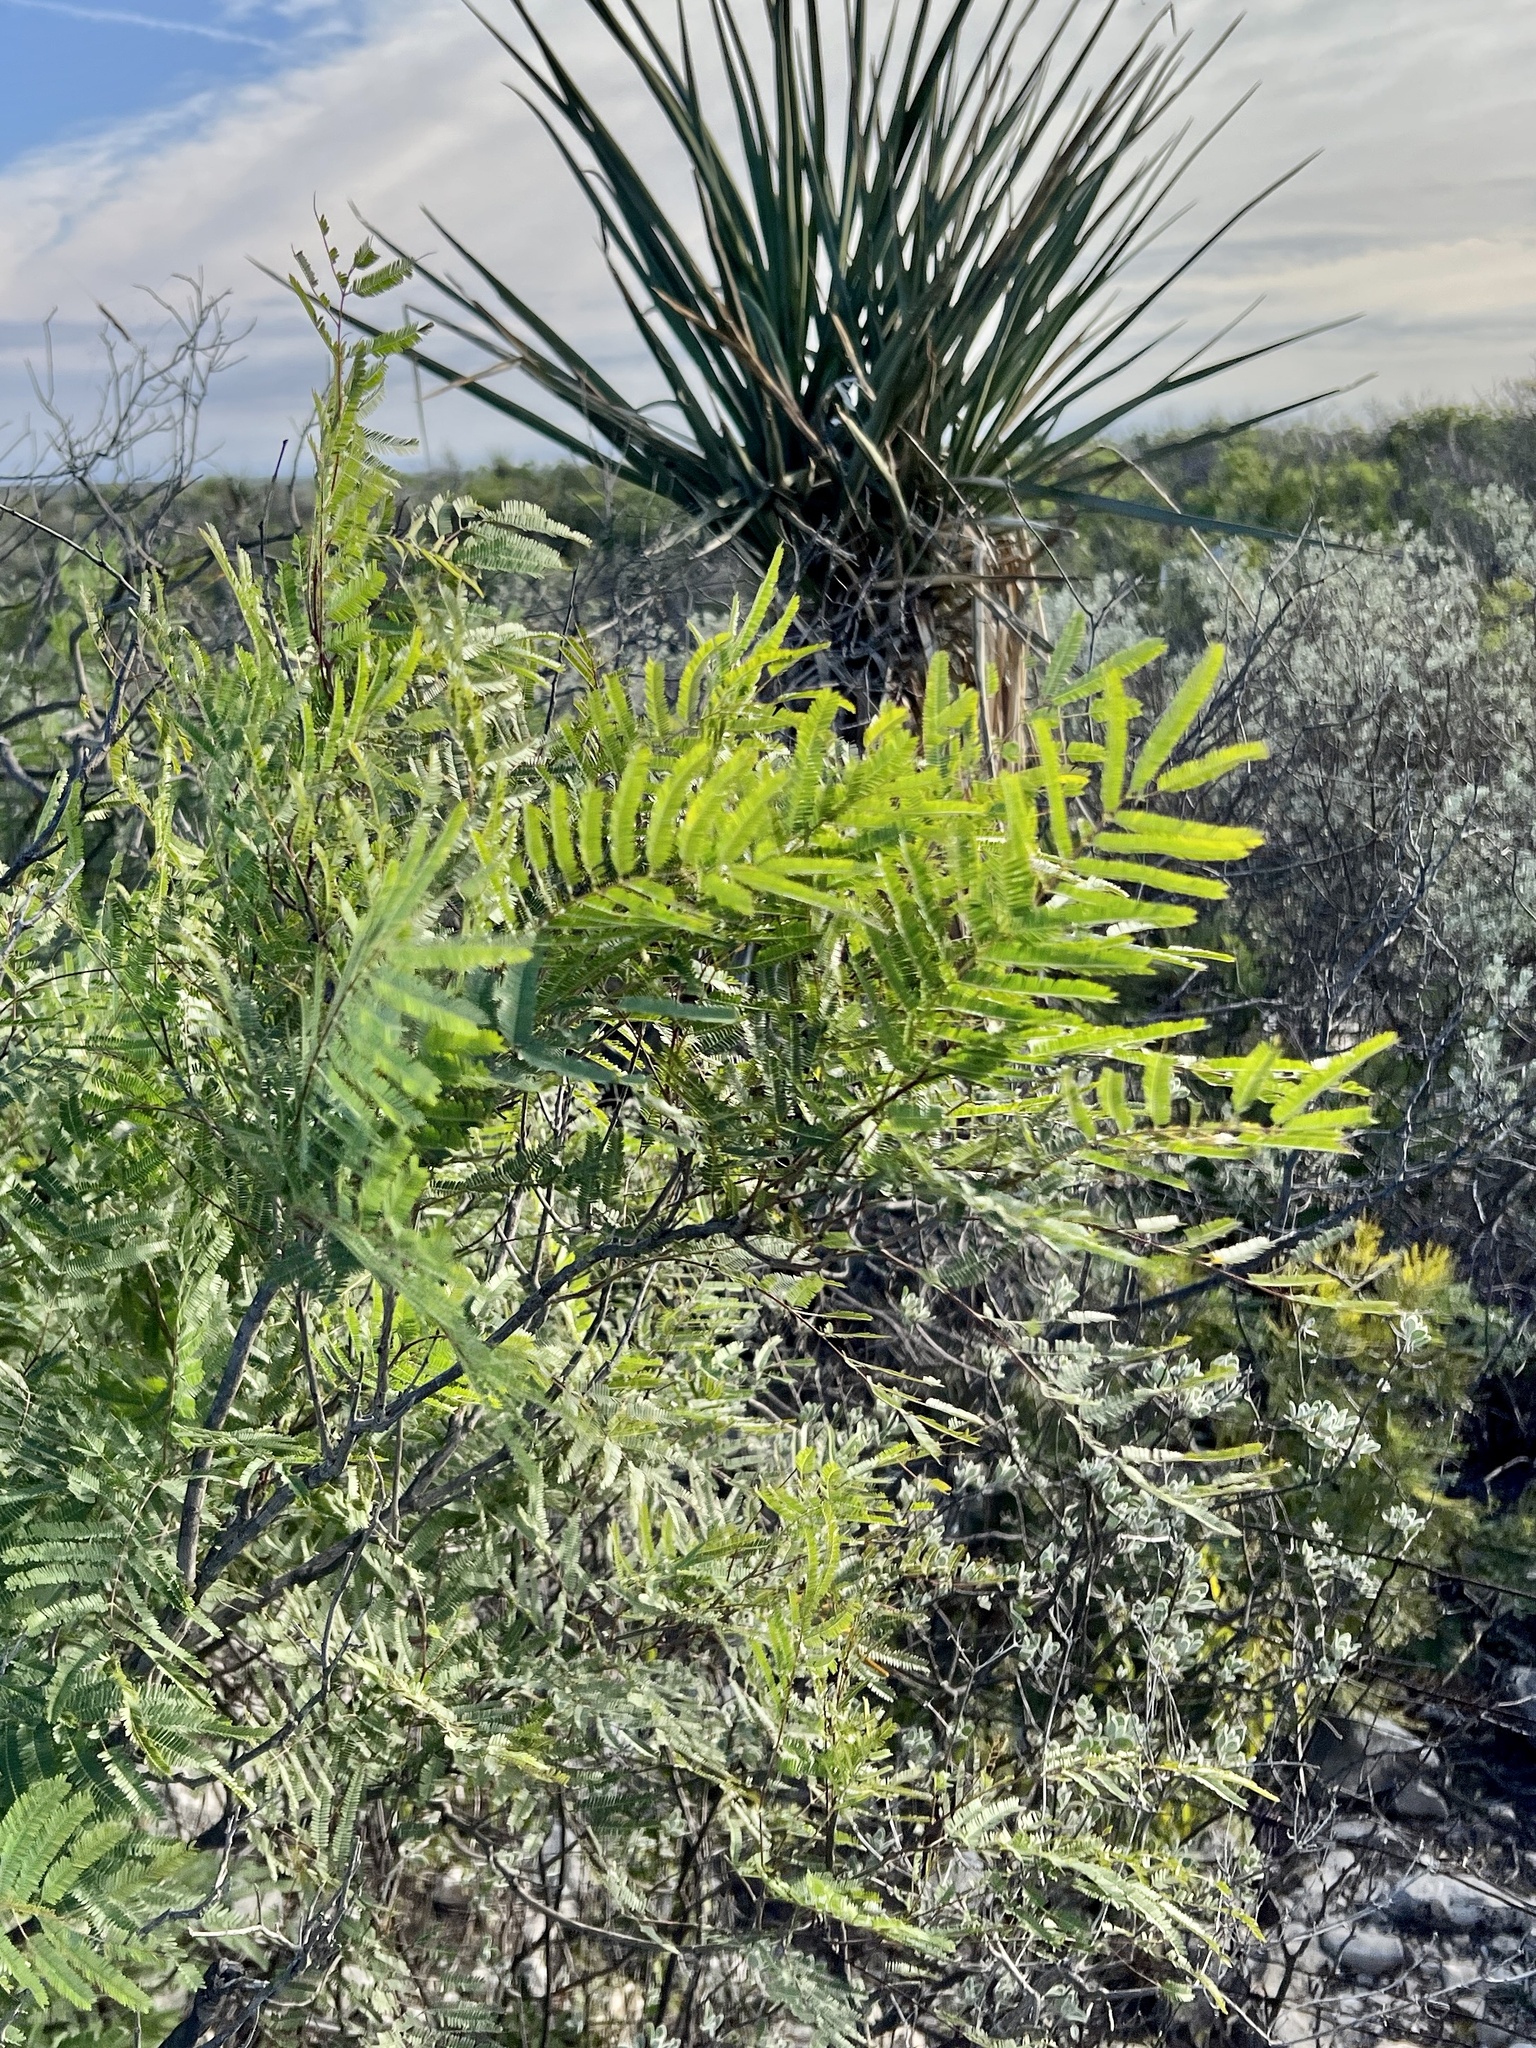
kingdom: Plantae
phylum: Tracheophyta
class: Magnoliopsida
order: Fabales
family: Fabaceae
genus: Senegalia
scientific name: Senegalia berlandieri
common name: Berlandier acacia
